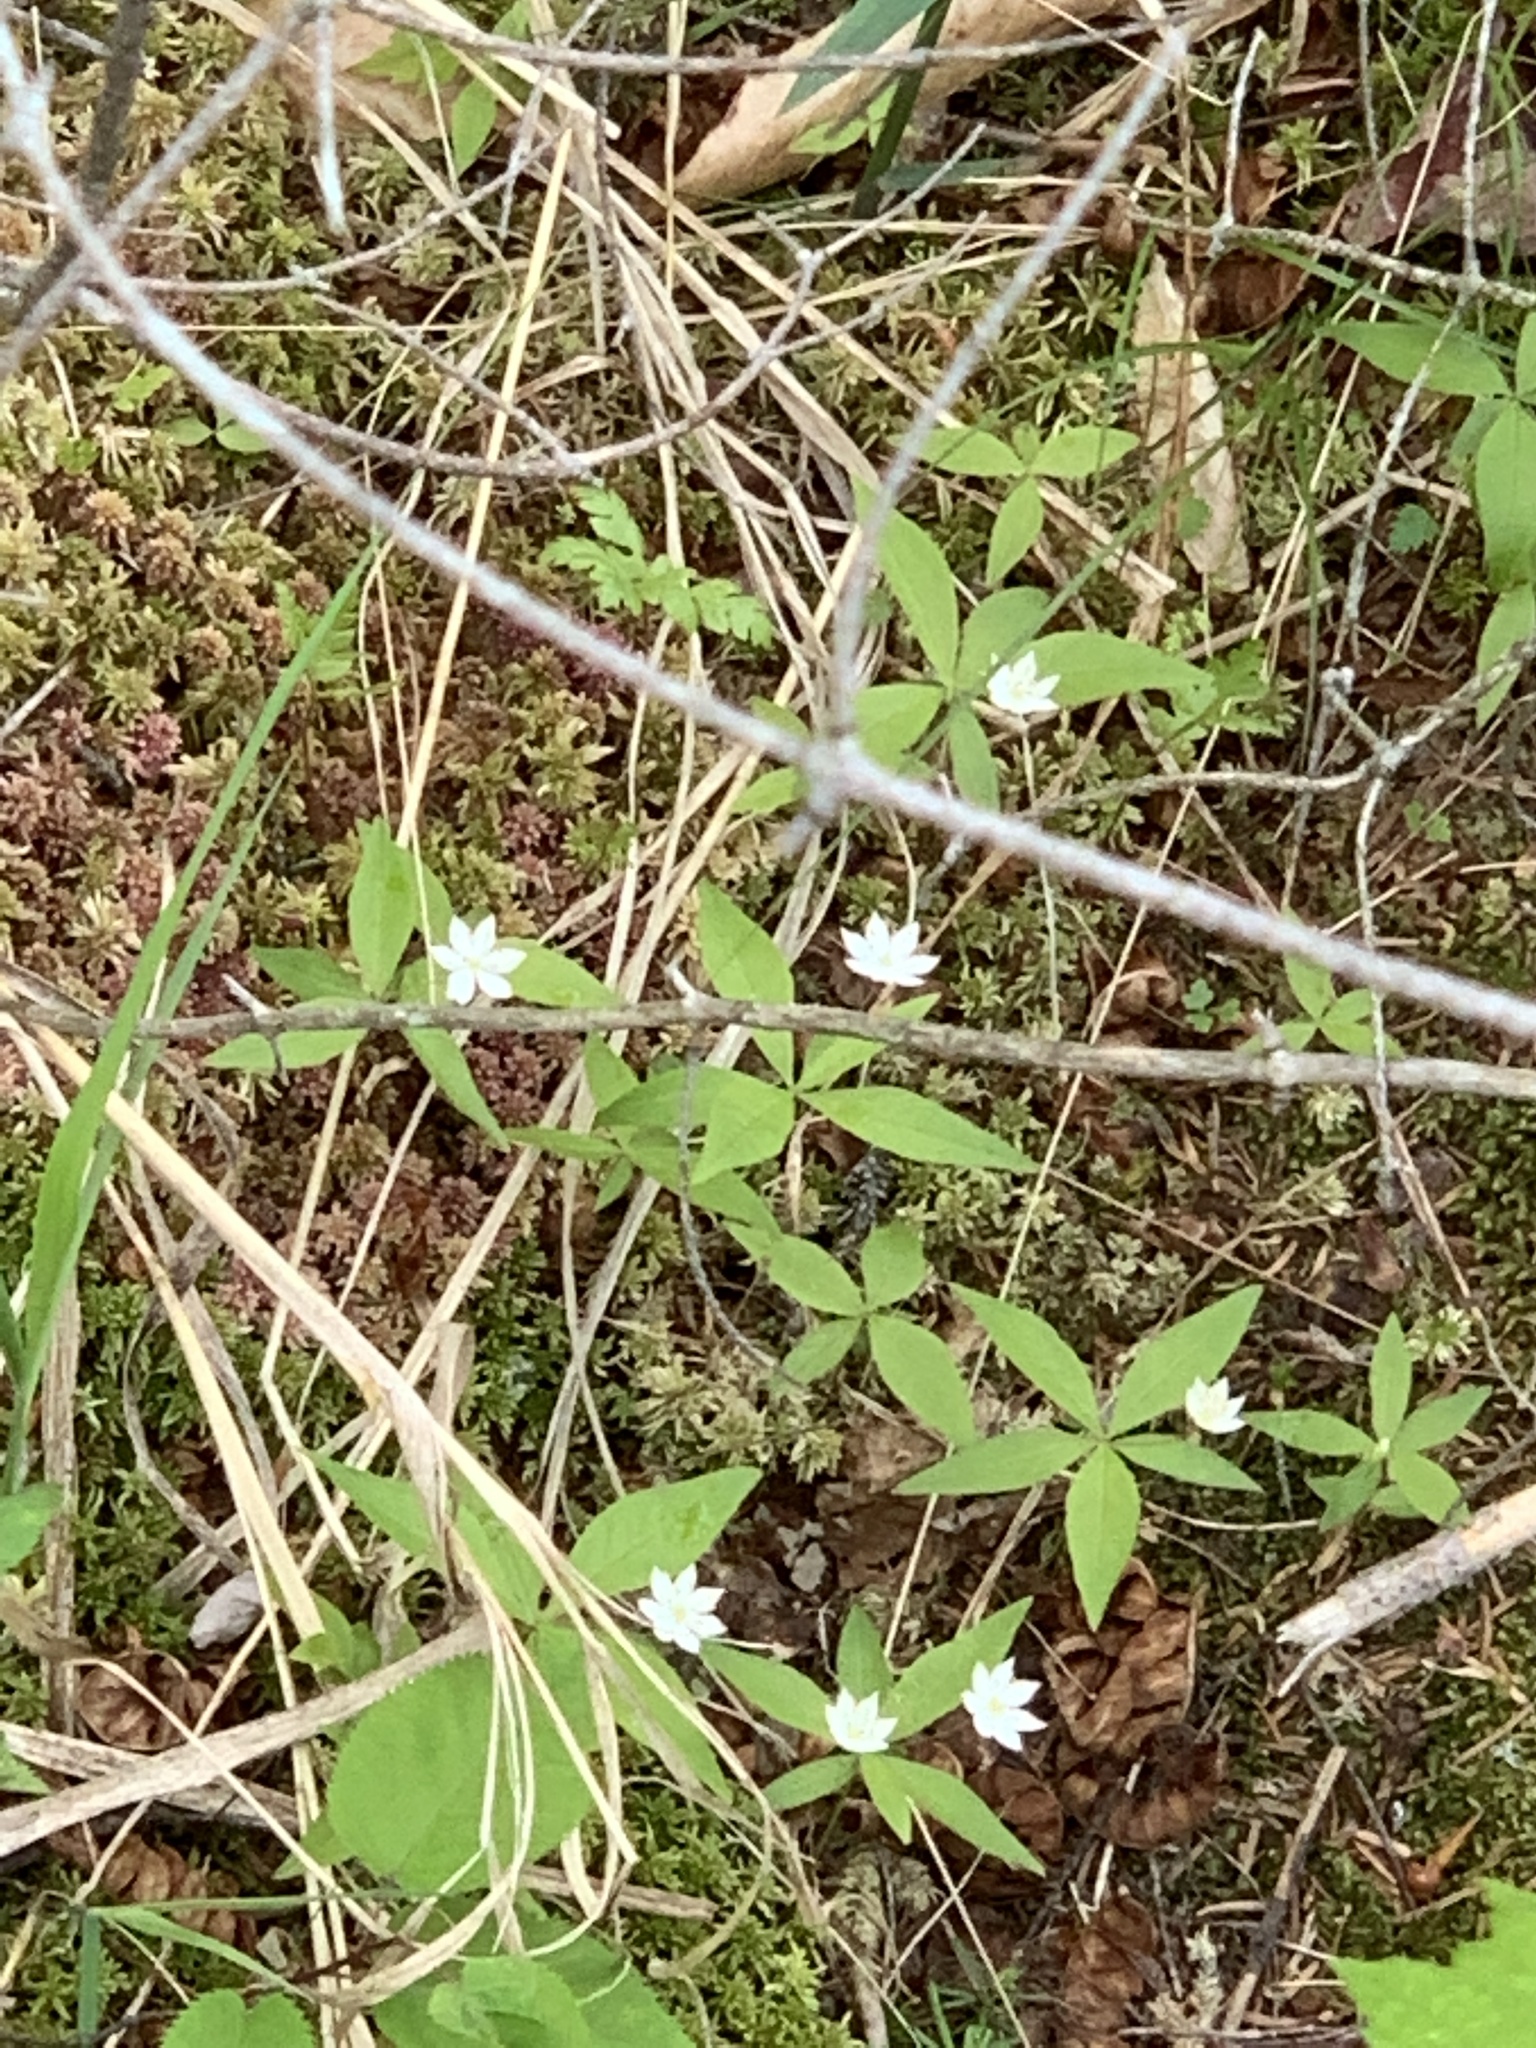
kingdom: Plantae
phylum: Tracheophyta
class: Magnoliopsida
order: Ericales
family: Primulaceae
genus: Lysimachia
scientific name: Lysimachia borealis
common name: American starflower
